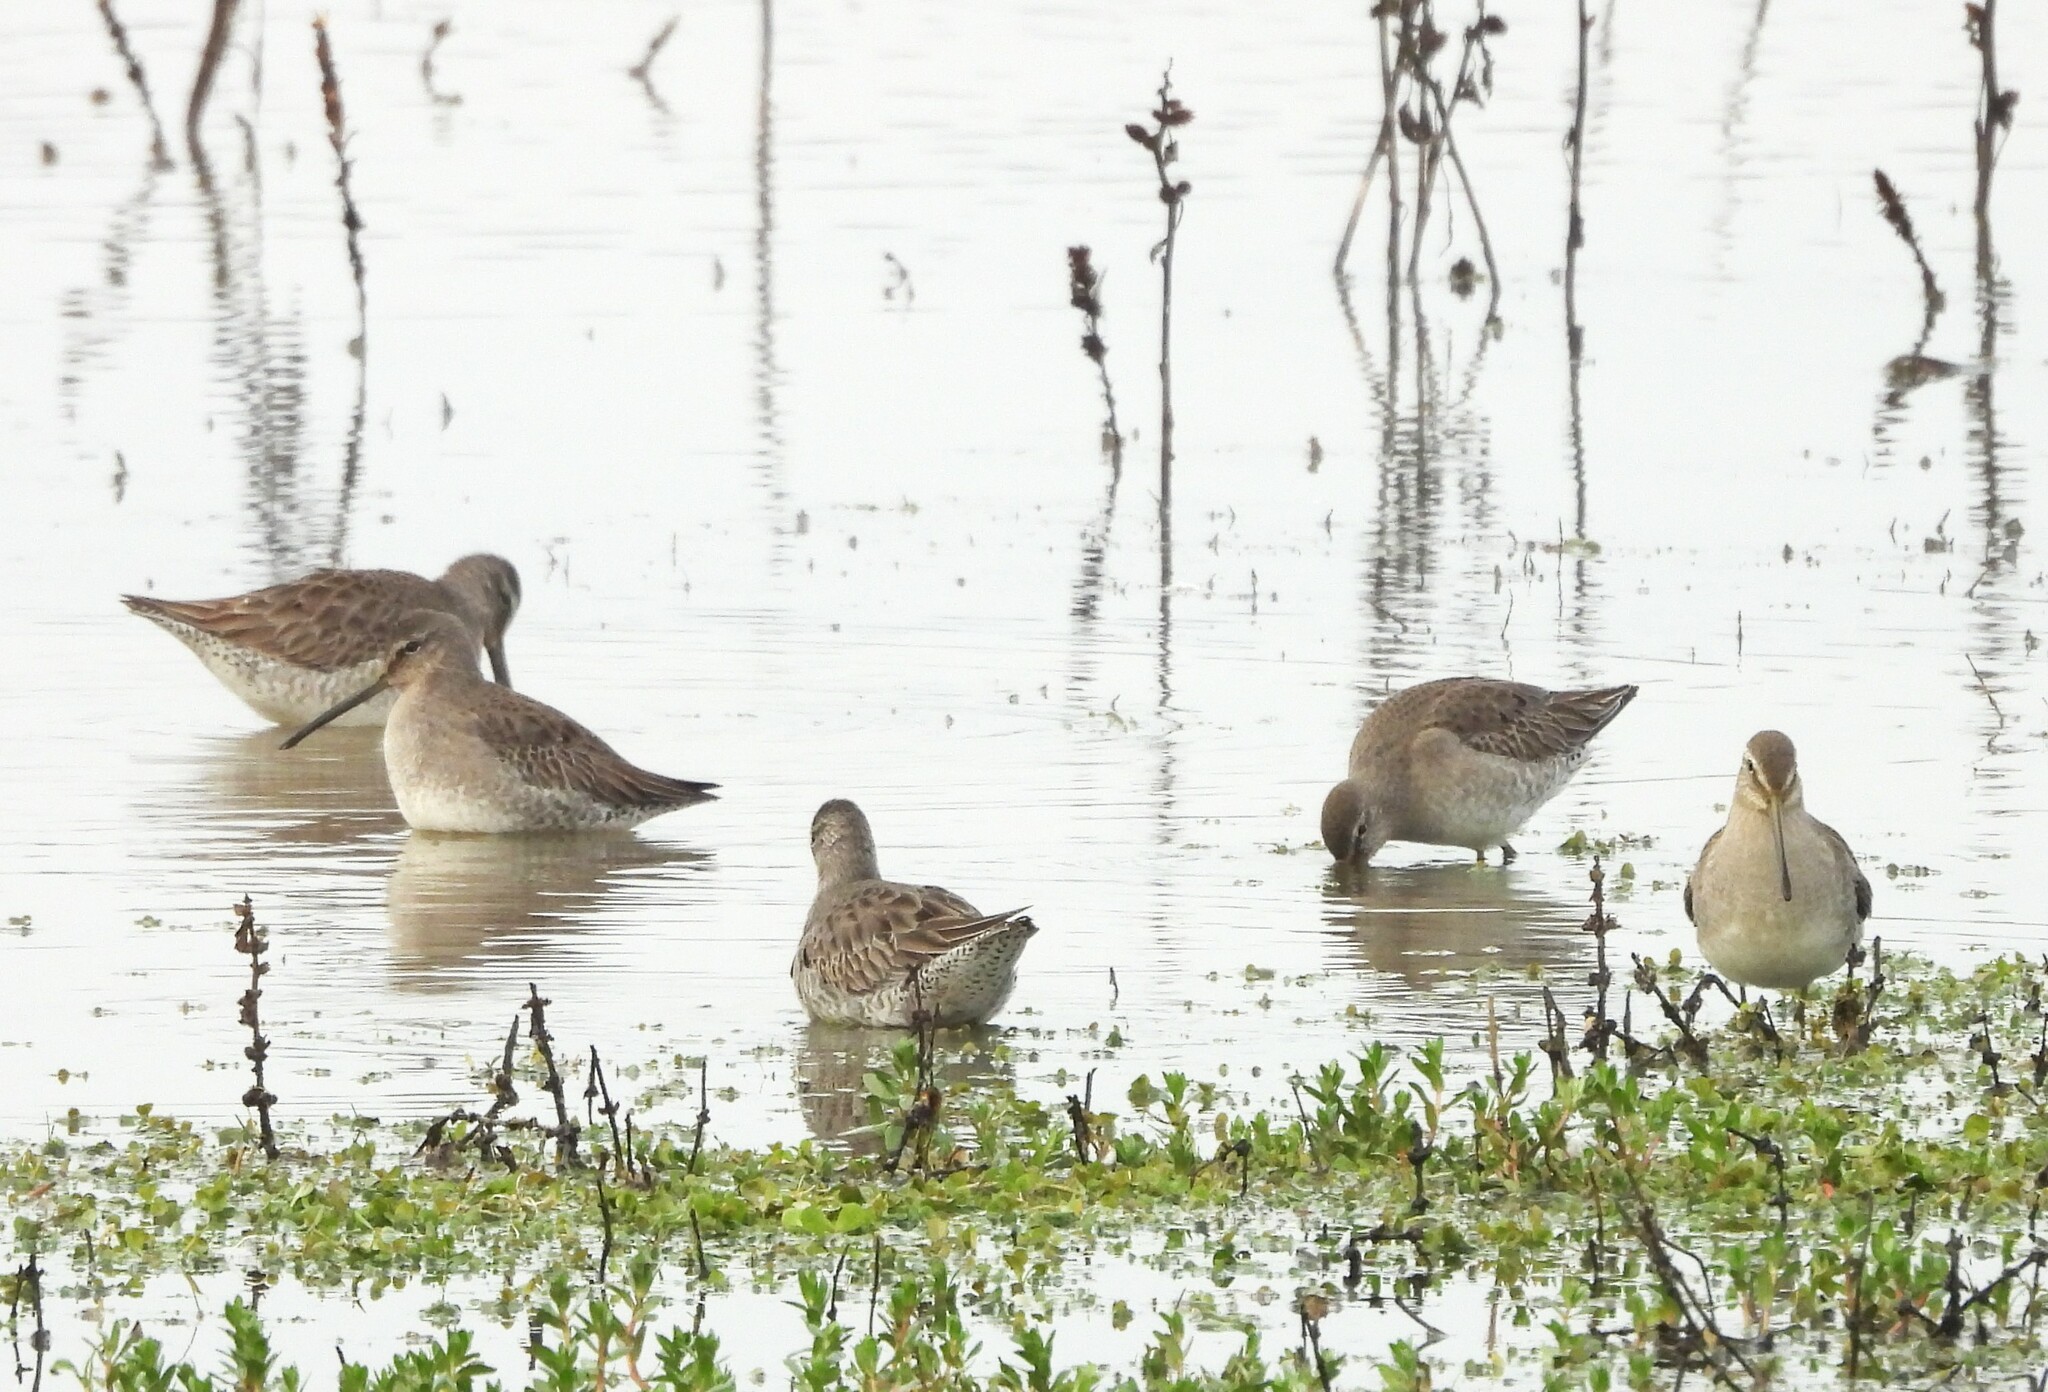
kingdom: Animalia
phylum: Chordata
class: Aves
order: Charadriiformes
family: Scolopacidae
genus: Limnodromus
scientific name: Limnodromus scolopaceus
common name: Long-billed dowitcher
